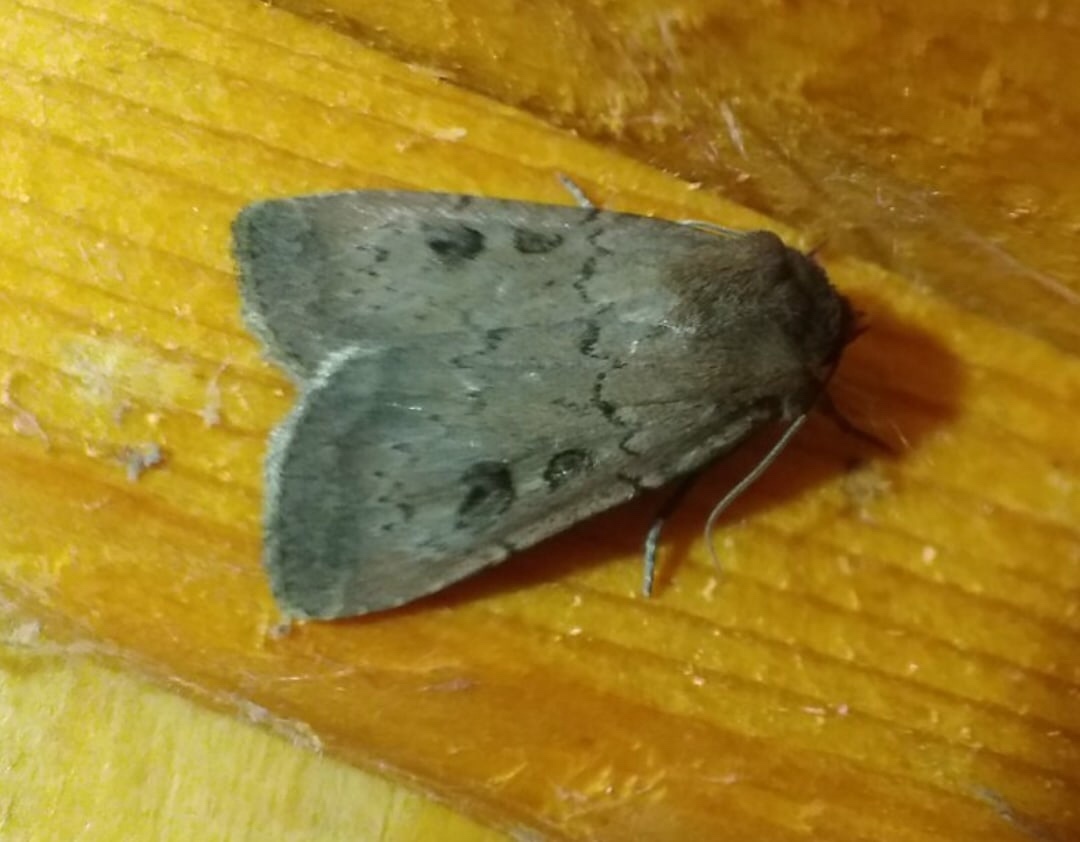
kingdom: Animalia
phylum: Arthropoda
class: Insecta
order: Lepidoptera
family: Noctuidae
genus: Graphiphora
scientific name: Graphiphora augur
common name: Double dart
